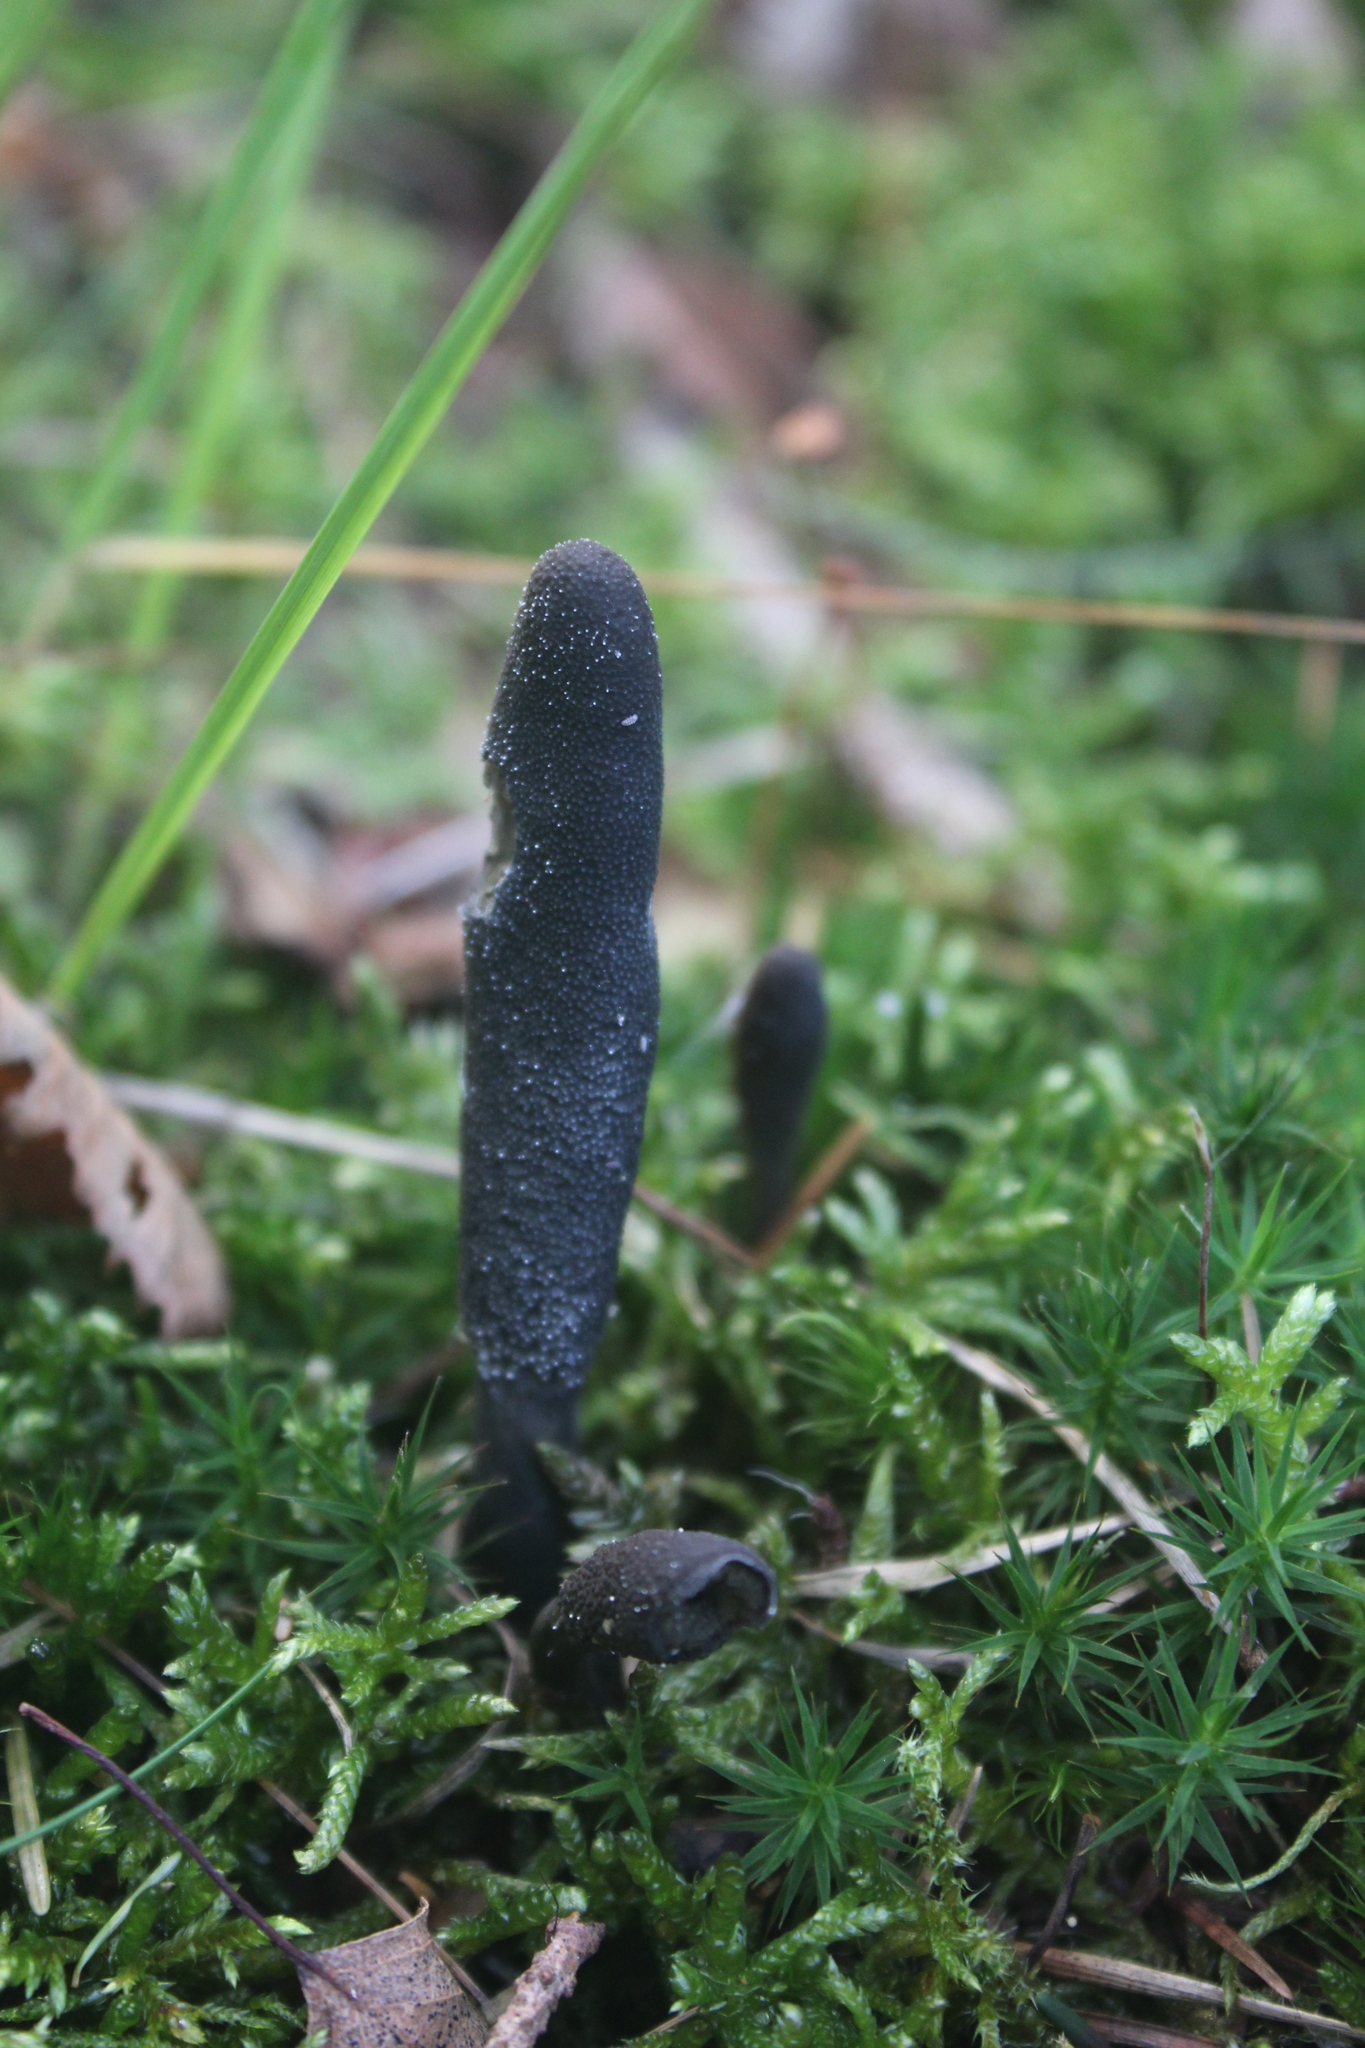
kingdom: Fungi
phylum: Ascomycota
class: Sordariomycetes
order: Xylariales
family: Xylariaceae
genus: Xylaria
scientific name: Xylaria polymorpha
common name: Dead man's fingers
